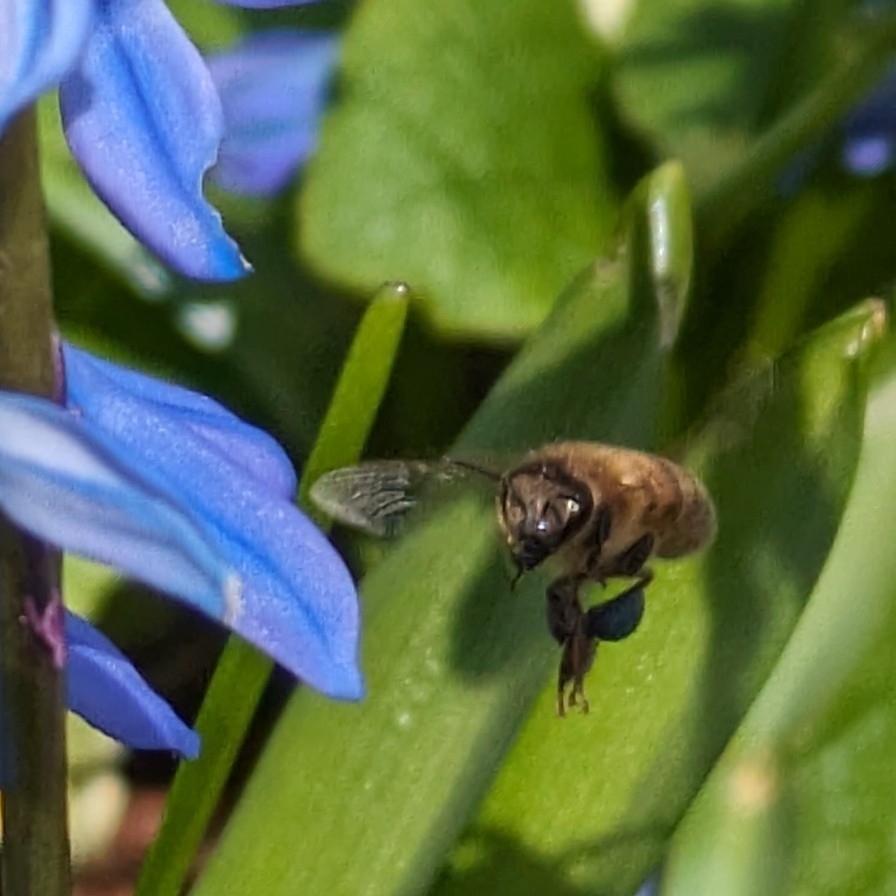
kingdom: Animalia
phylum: Arthropoda
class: Insecta
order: Hymenoptera
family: Apidae
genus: Apis
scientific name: Apis mellifera
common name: Honey bee
